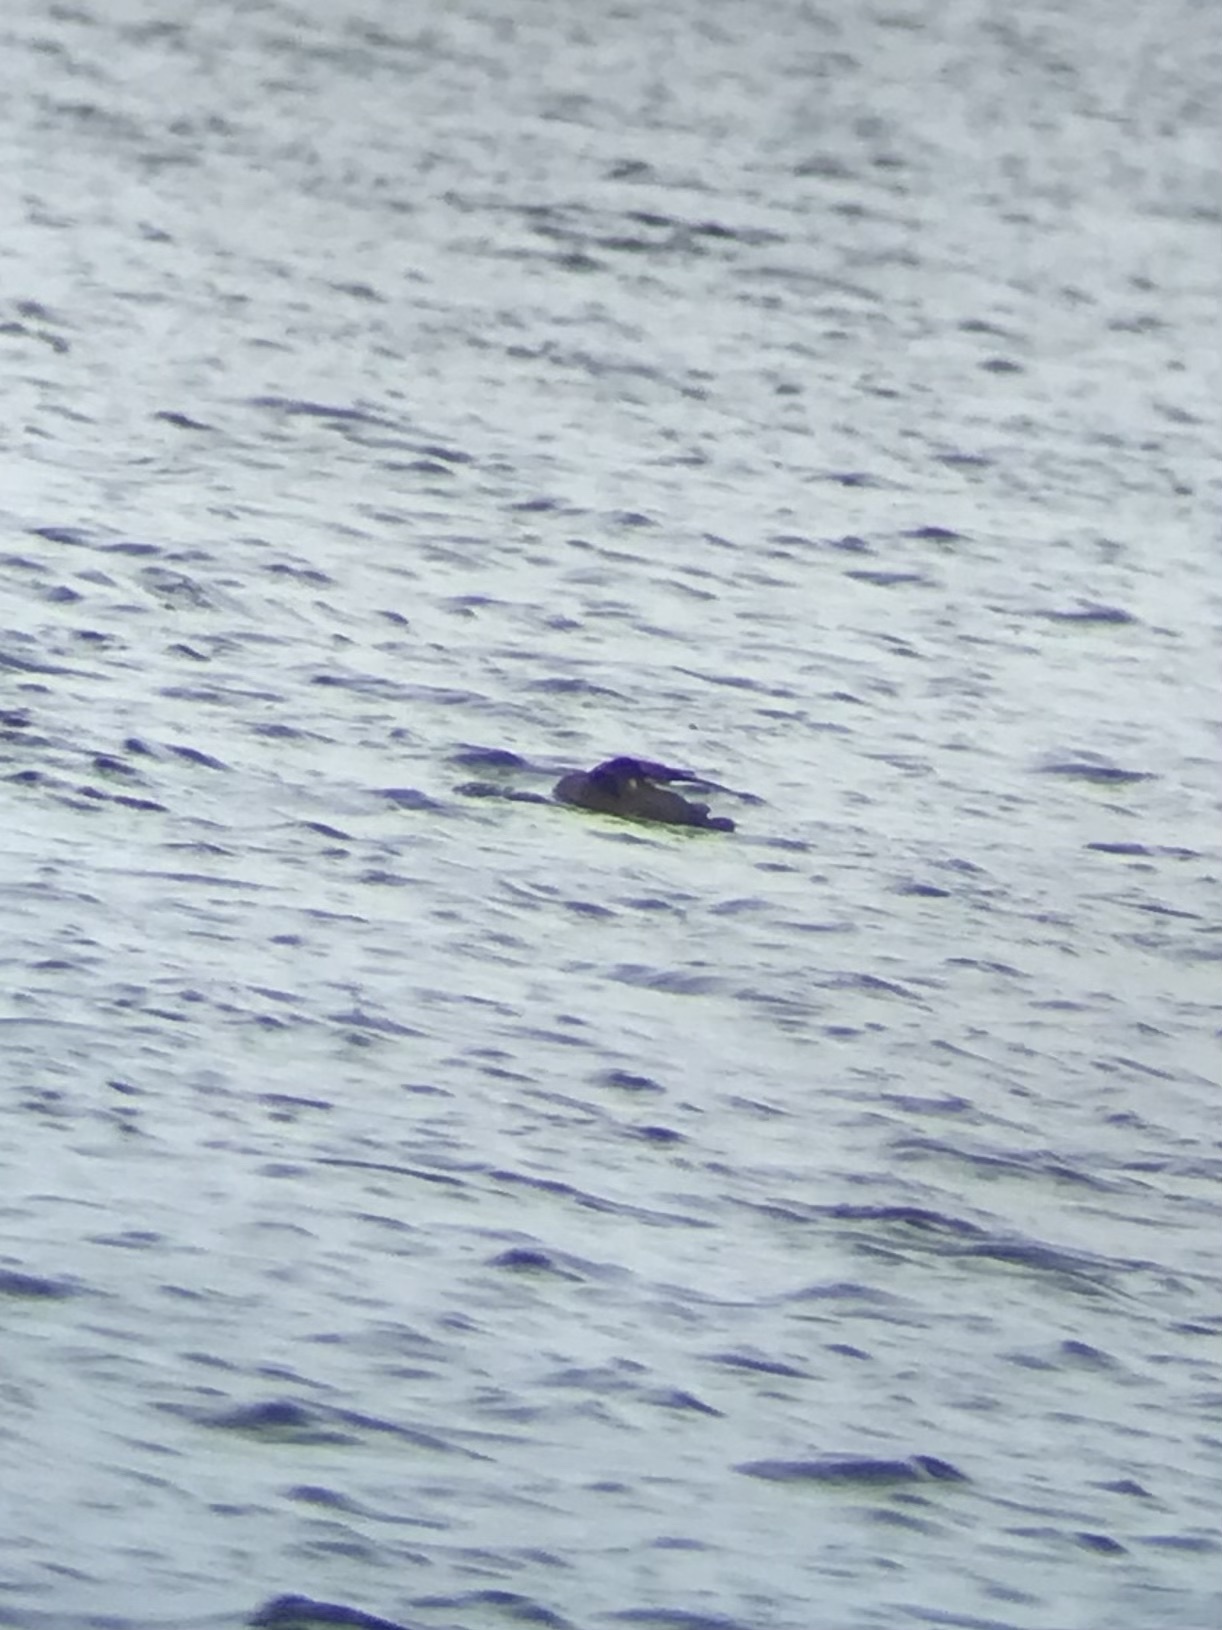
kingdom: Animalia
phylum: Chordata
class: Aves
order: Anseriformes
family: Anatidae
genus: Melanitta
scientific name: Melanitta deglandi
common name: White-winged scoter
